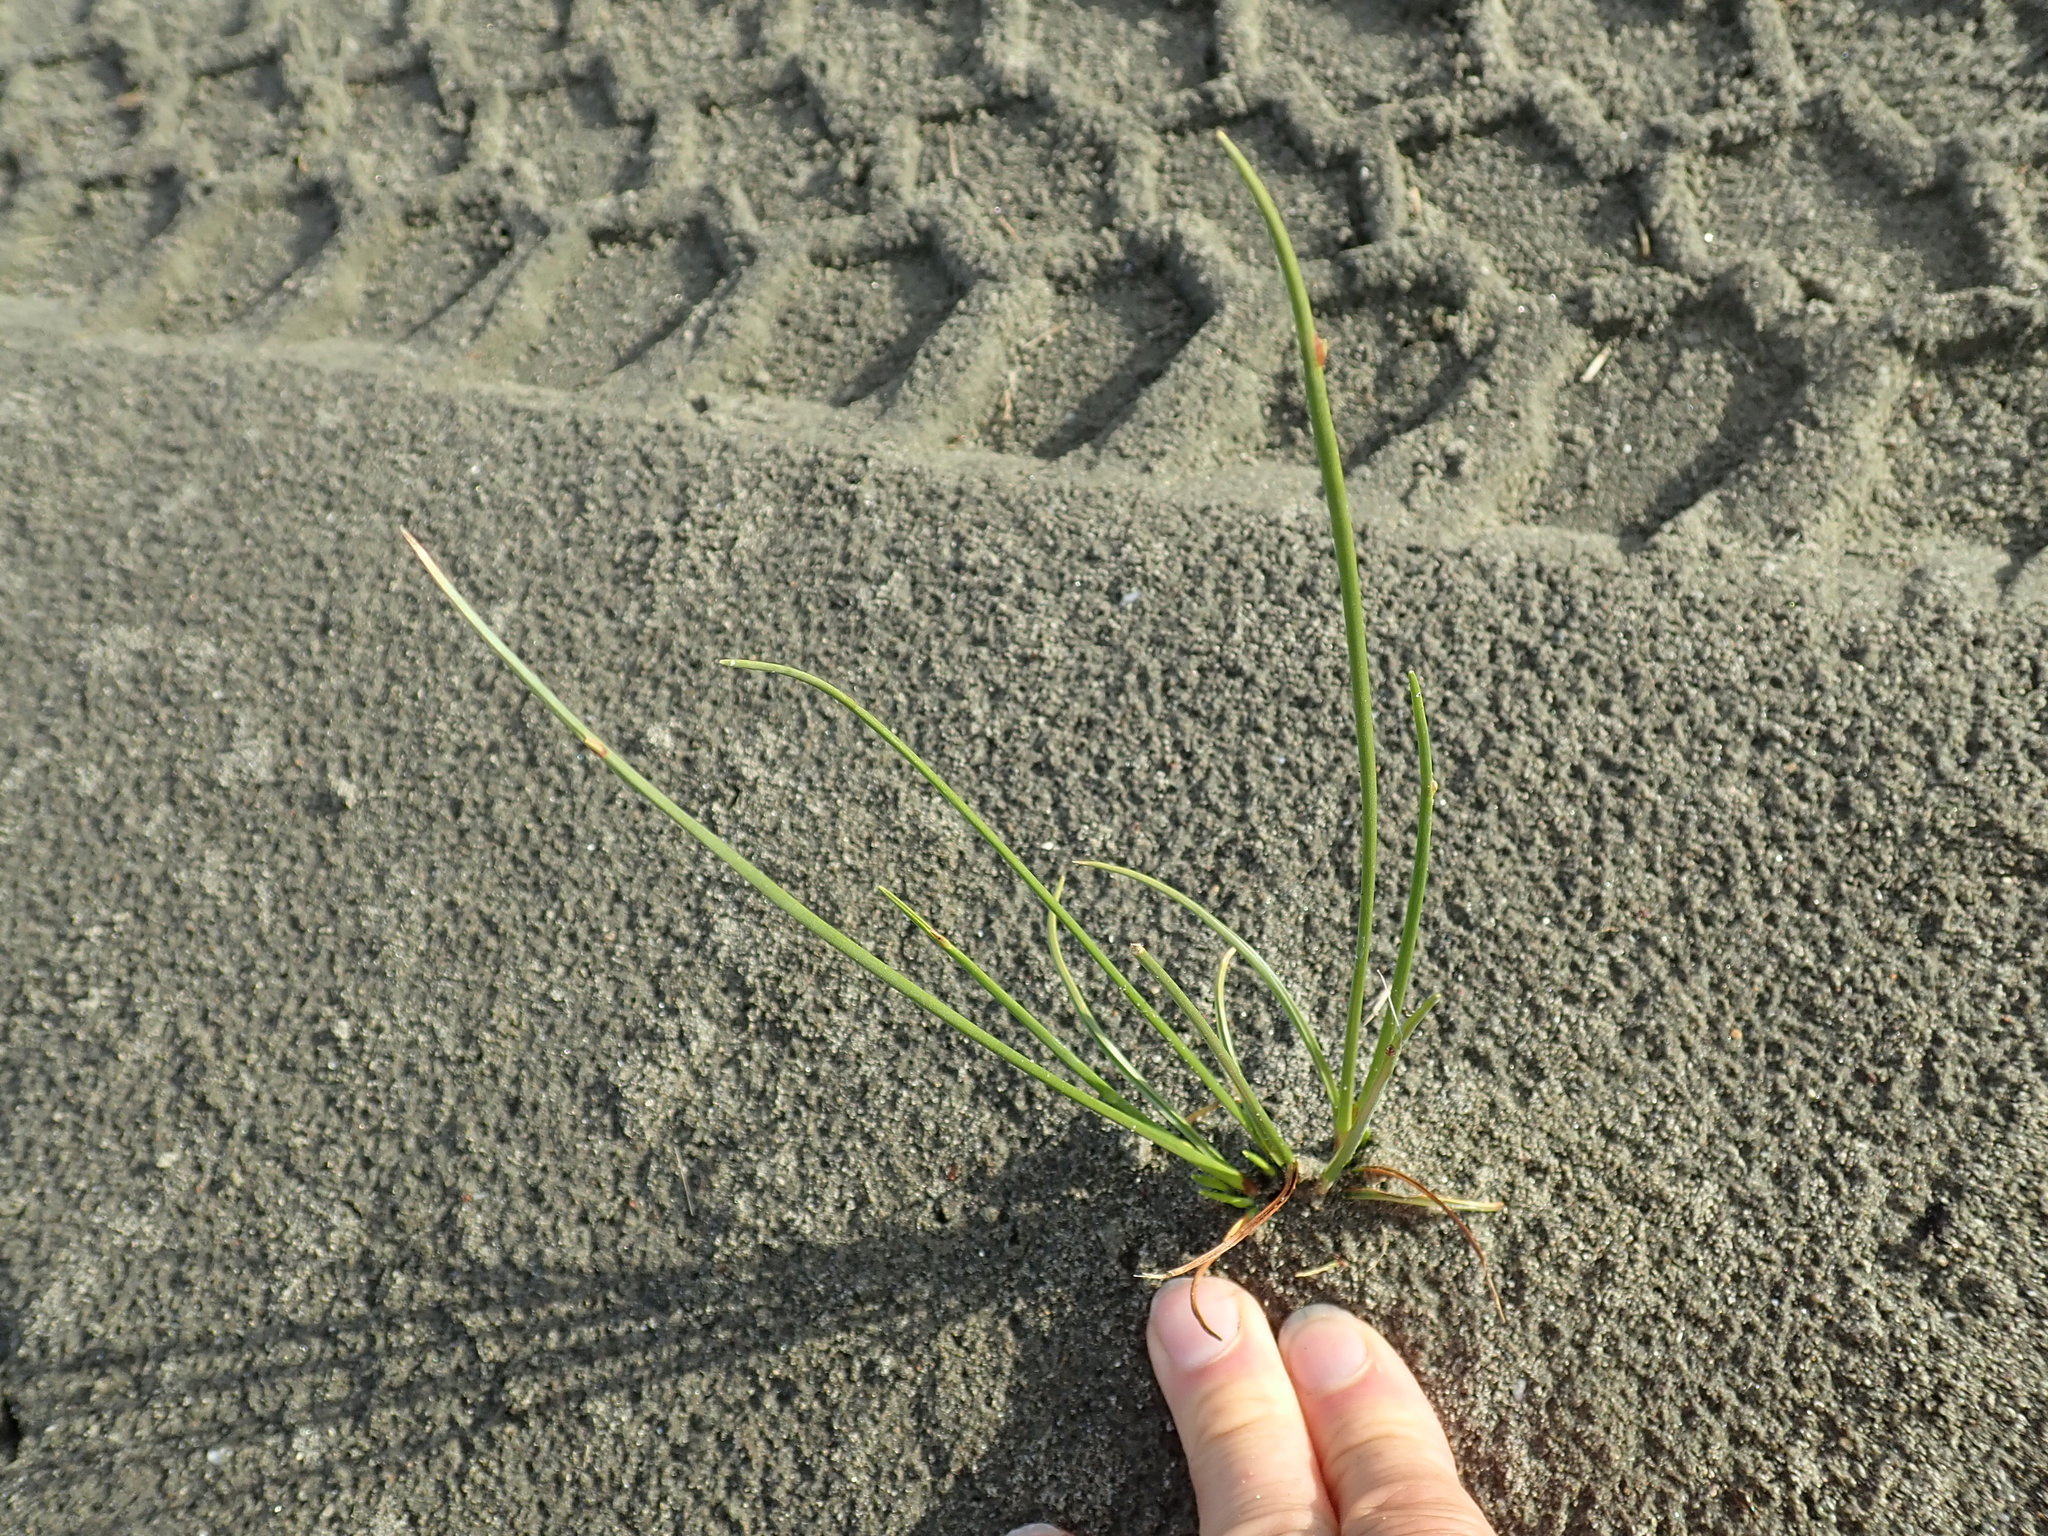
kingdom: Plantae
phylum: Tracheophyta
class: Liliopsida
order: Poales
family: Cyperaceae
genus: Ficinia
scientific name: Ficinia nodosa
